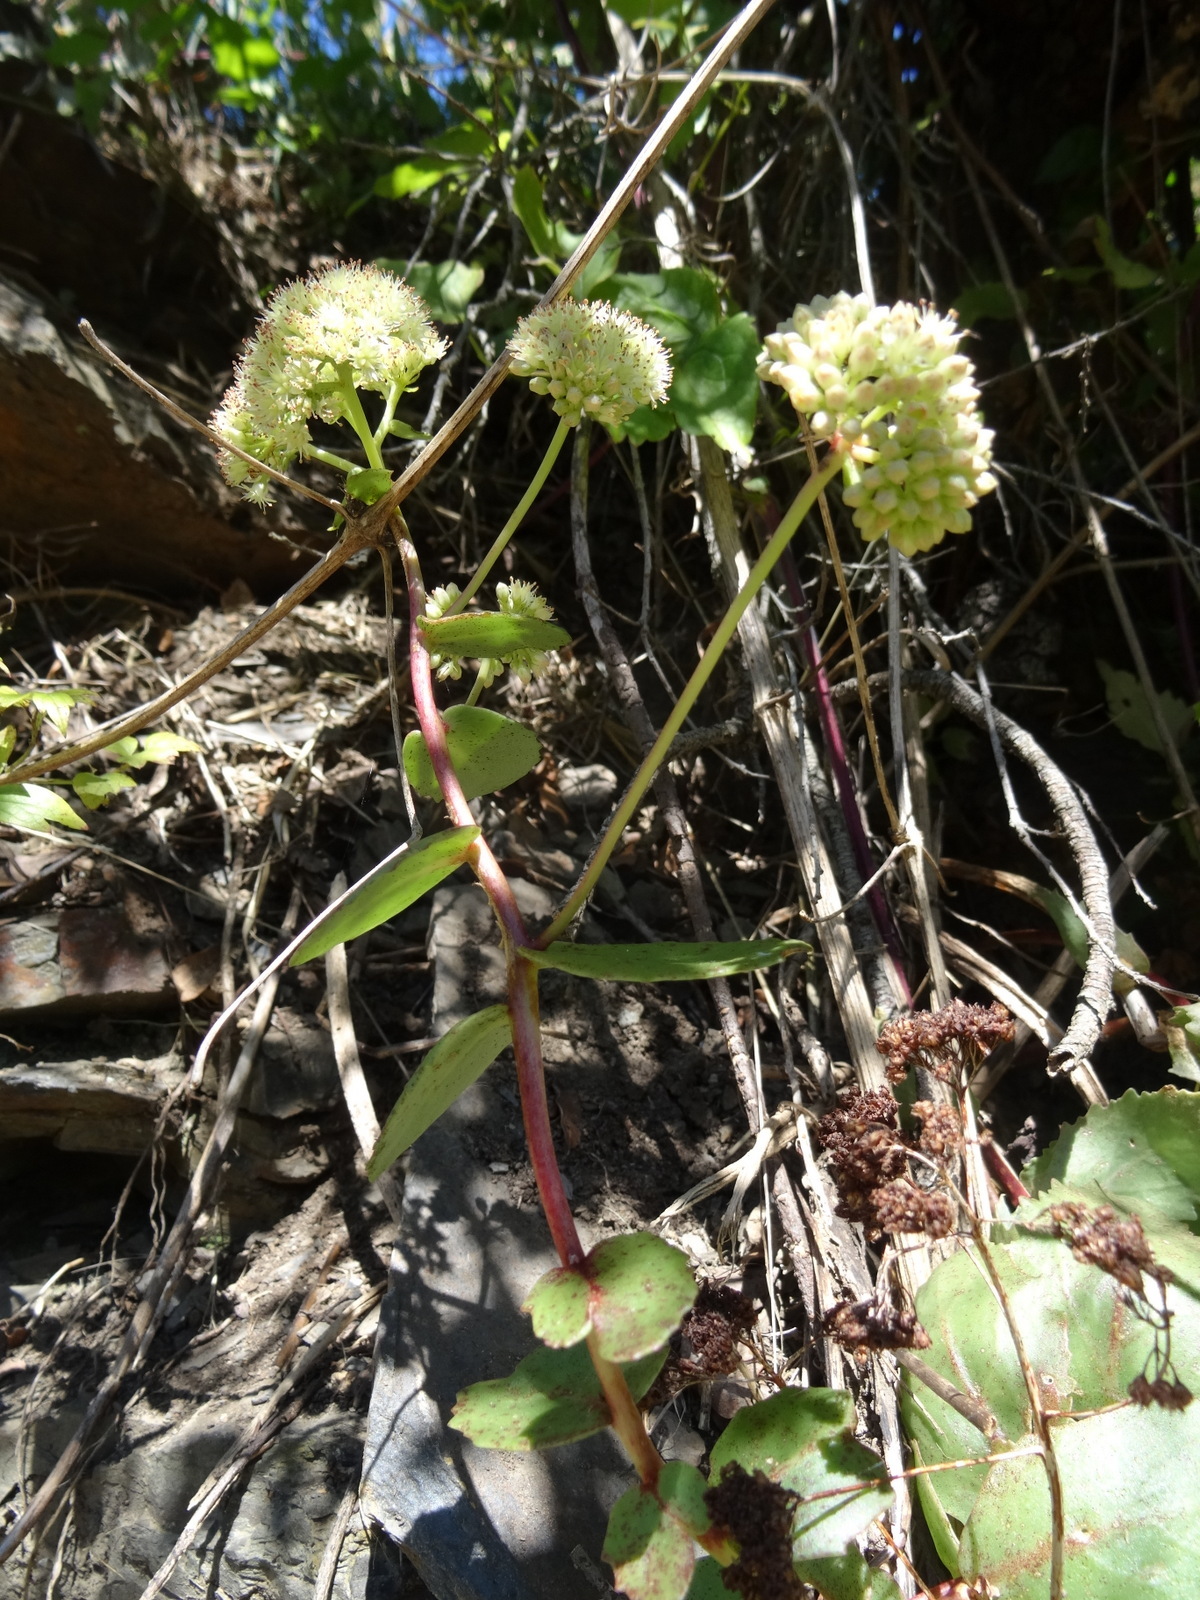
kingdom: Plantae
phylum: Tracheophyta
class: Magnoliopsida
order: Saxifragales
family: Crassulaceae
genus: Hylotelephium
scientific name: Hylotelephium maximum
